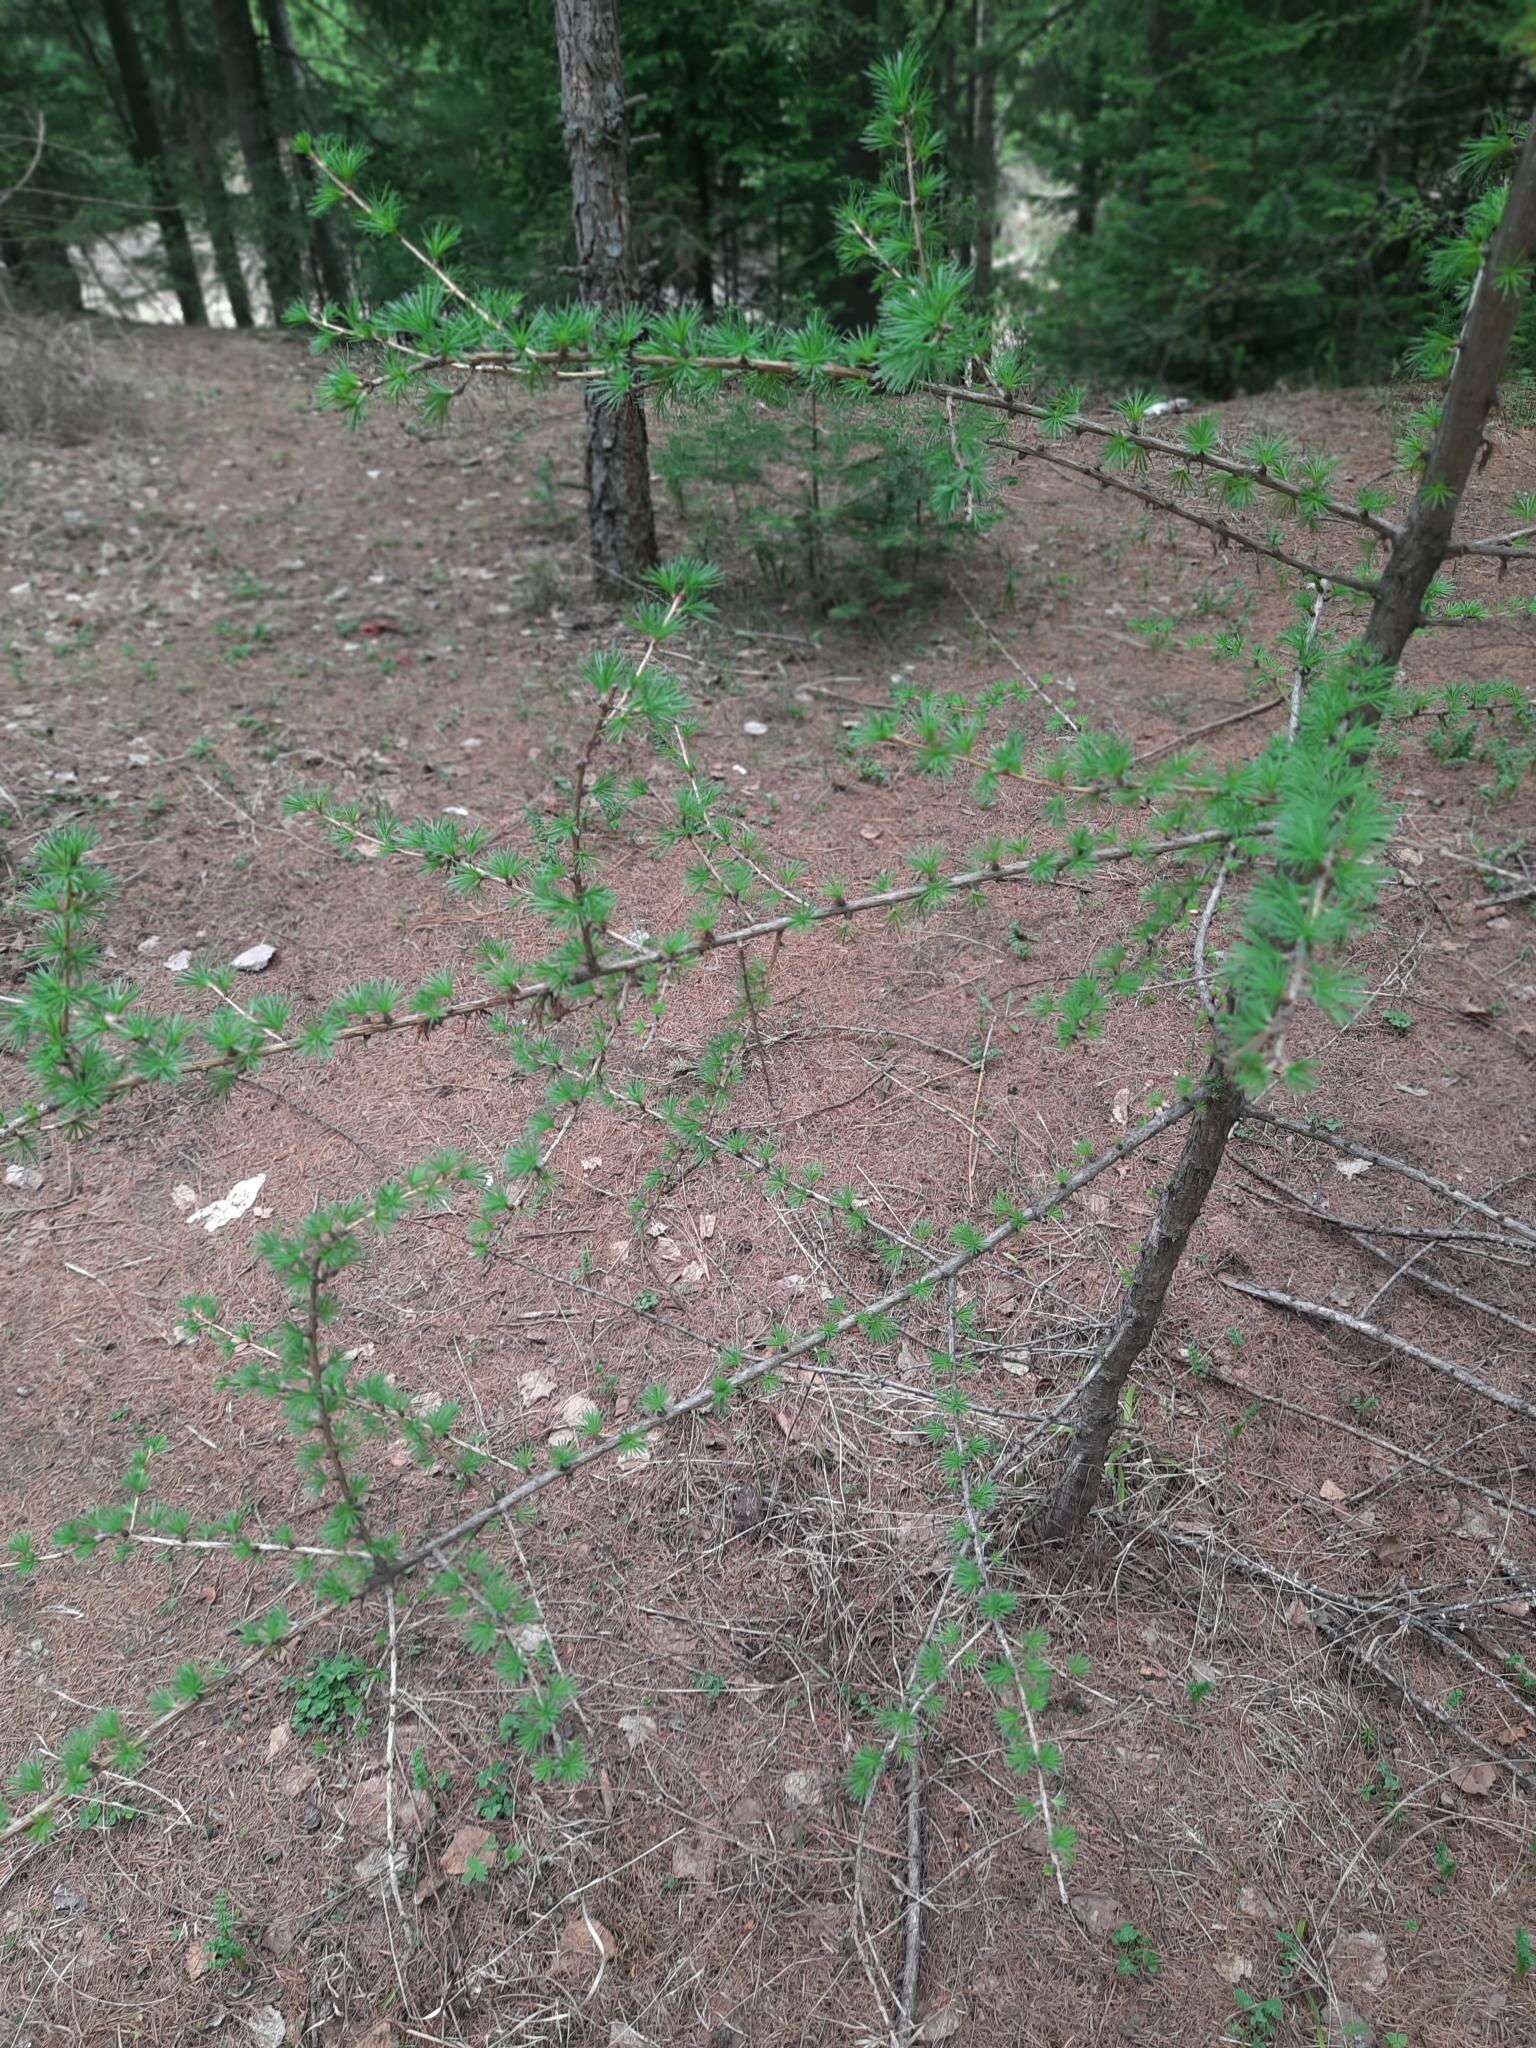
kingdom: Plantae
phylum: Tracheophyta
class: Pinopsida
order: Pinales
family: Pinaceae
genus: Larix
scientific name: Larix sibirica
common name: Siberian larch
